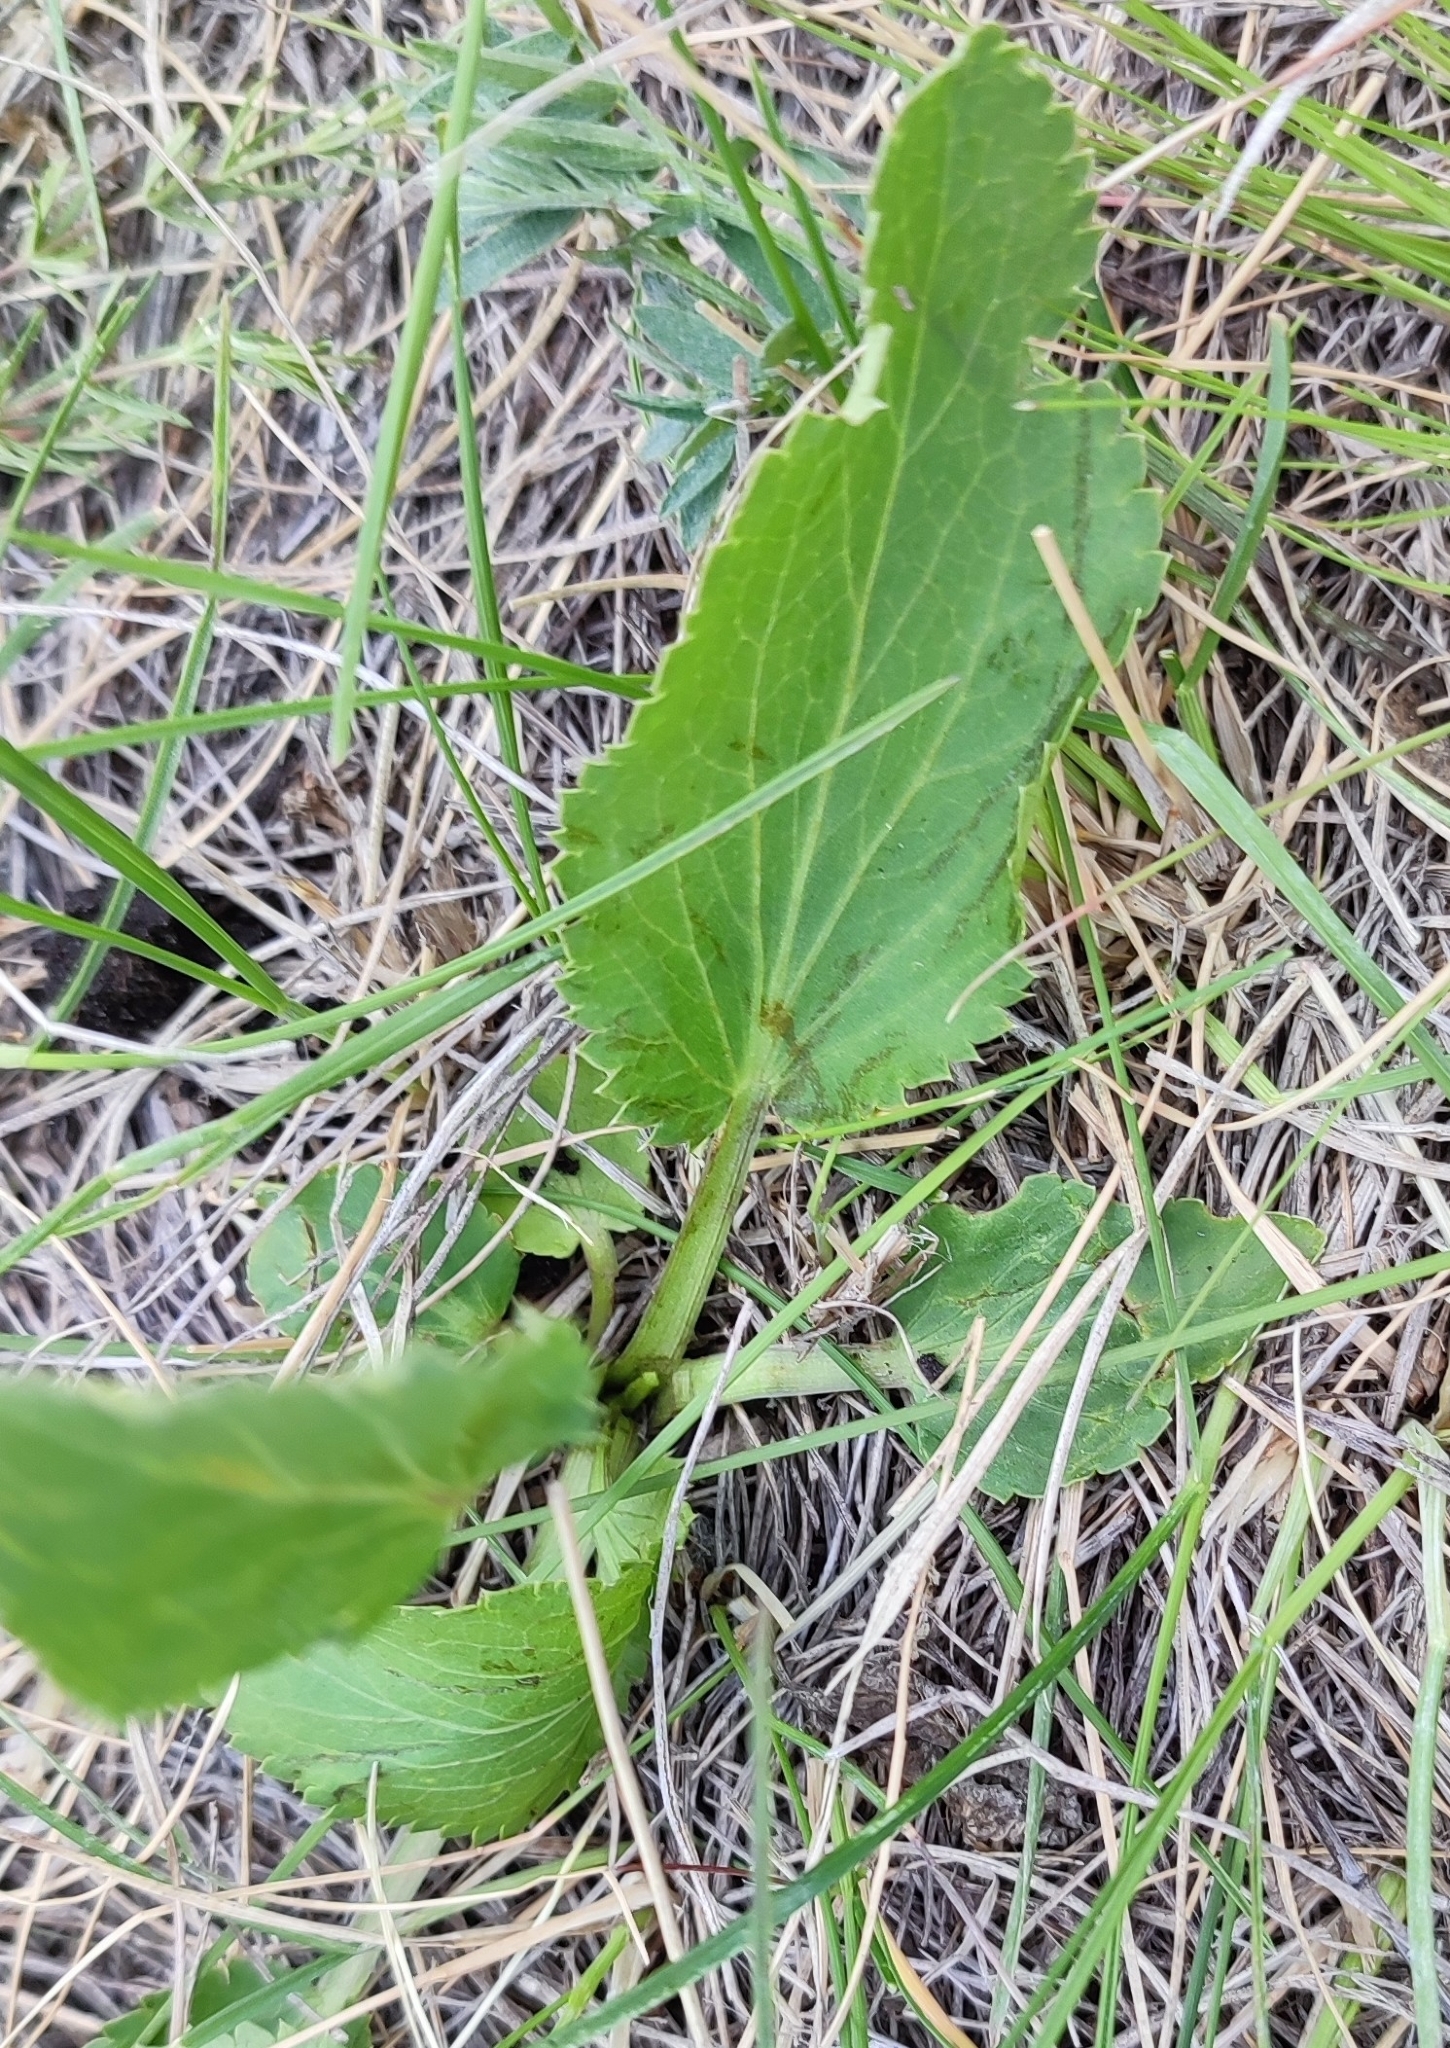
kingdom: Plantae
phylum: Tracheophyta
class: Magnoliopsida
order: Apiales
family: Apiaceae
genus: Eryngium
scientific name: Eryngium planum
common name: Blue eryngo
